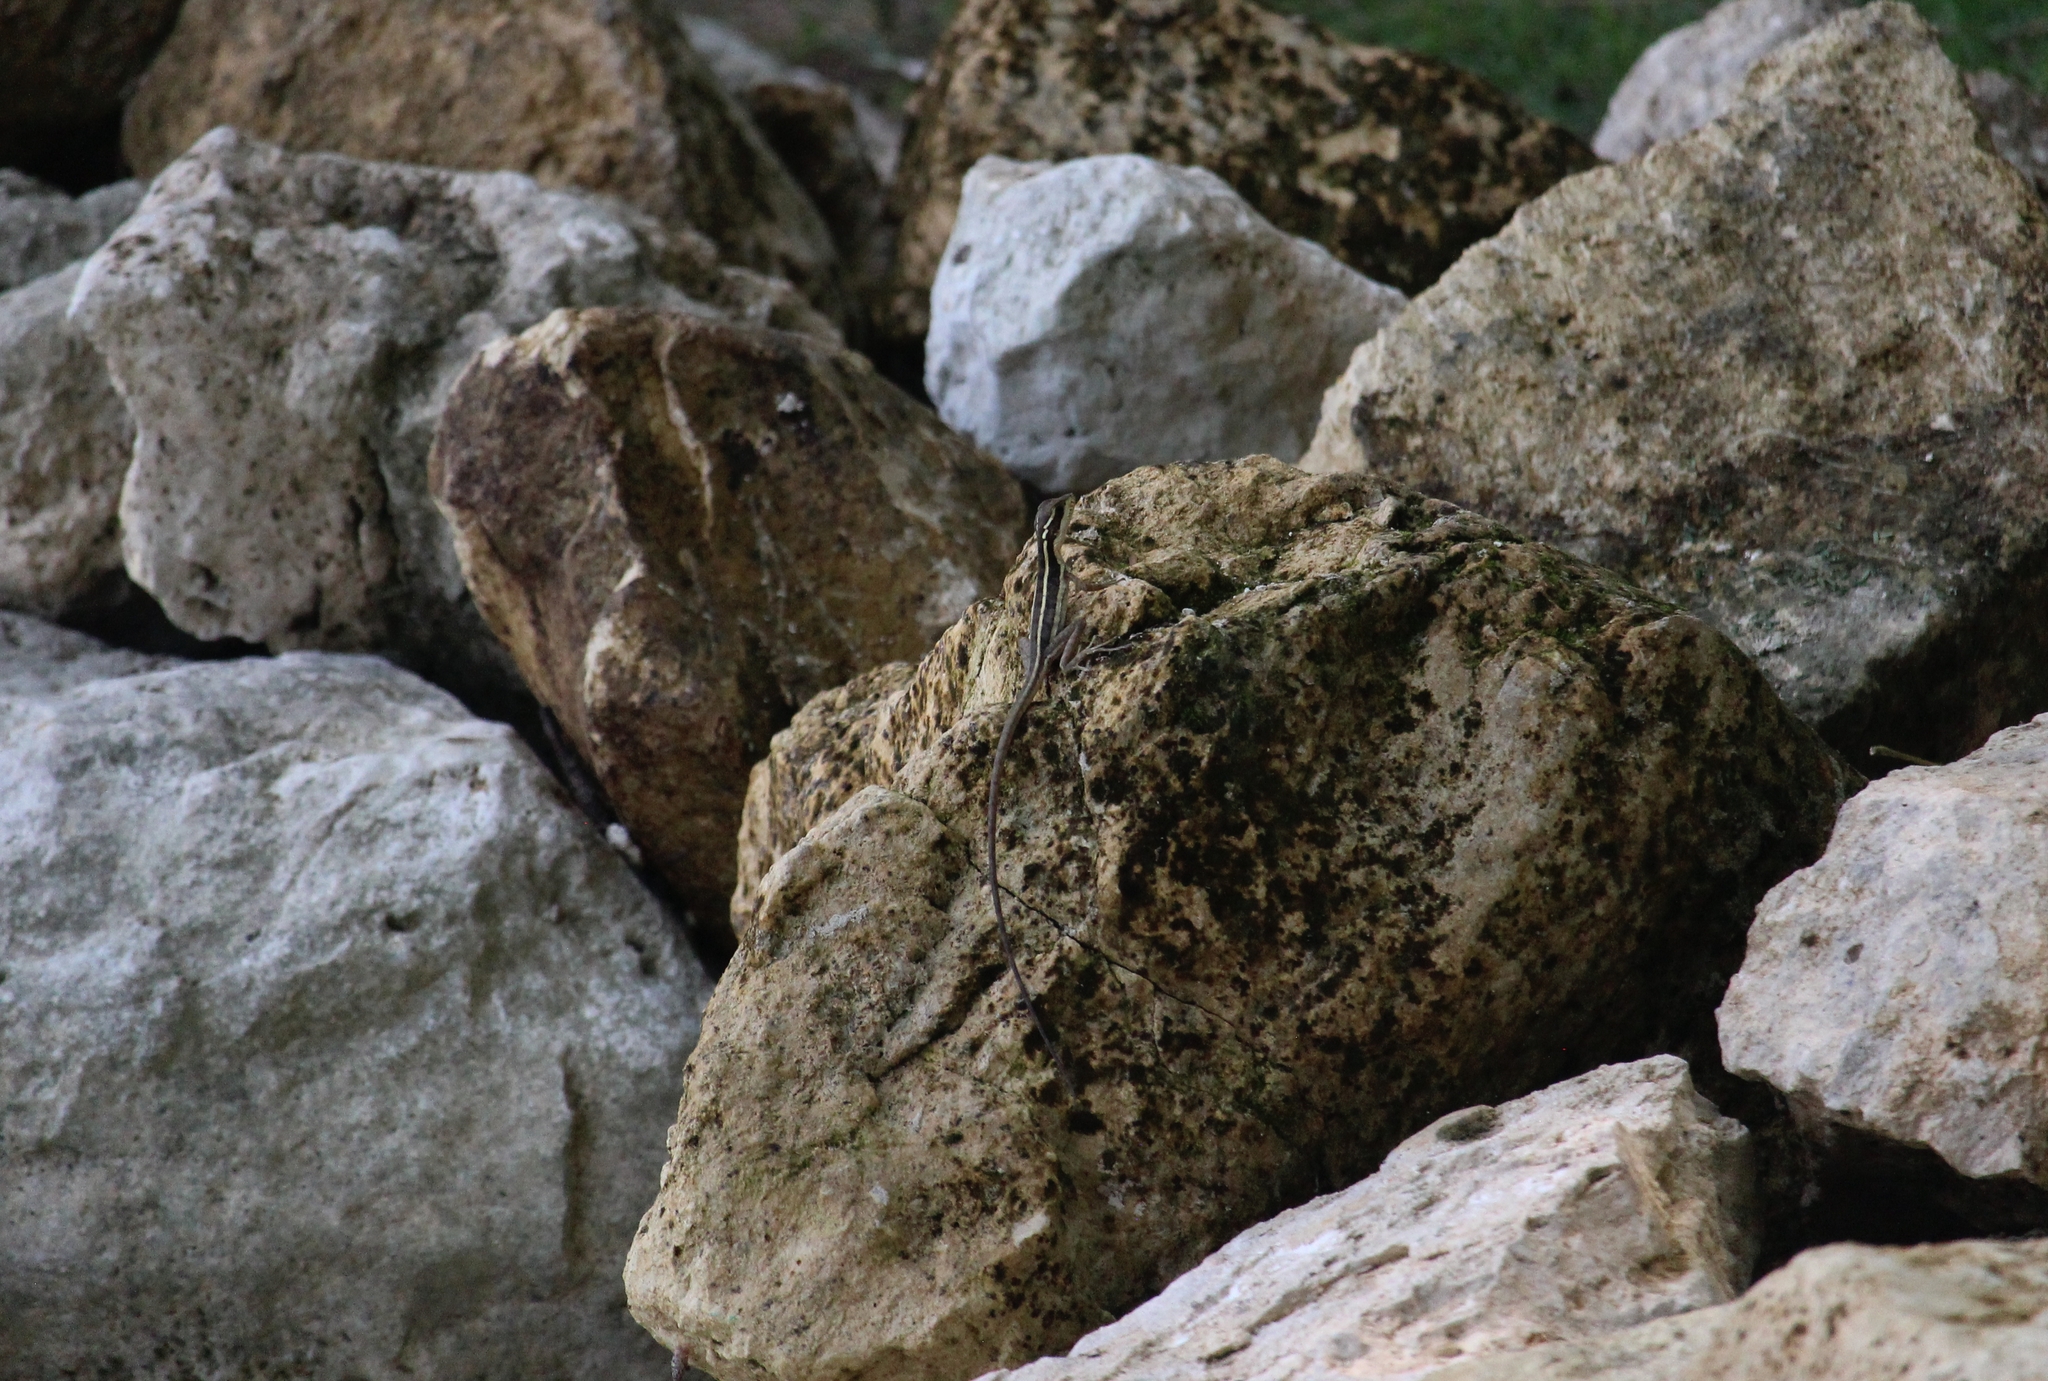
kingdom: Animalia
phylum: Chordata
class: Squamata
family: Corytophanidae
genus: Basiliscus
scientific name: Basiliscus vittatus
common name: Brown basilisk
